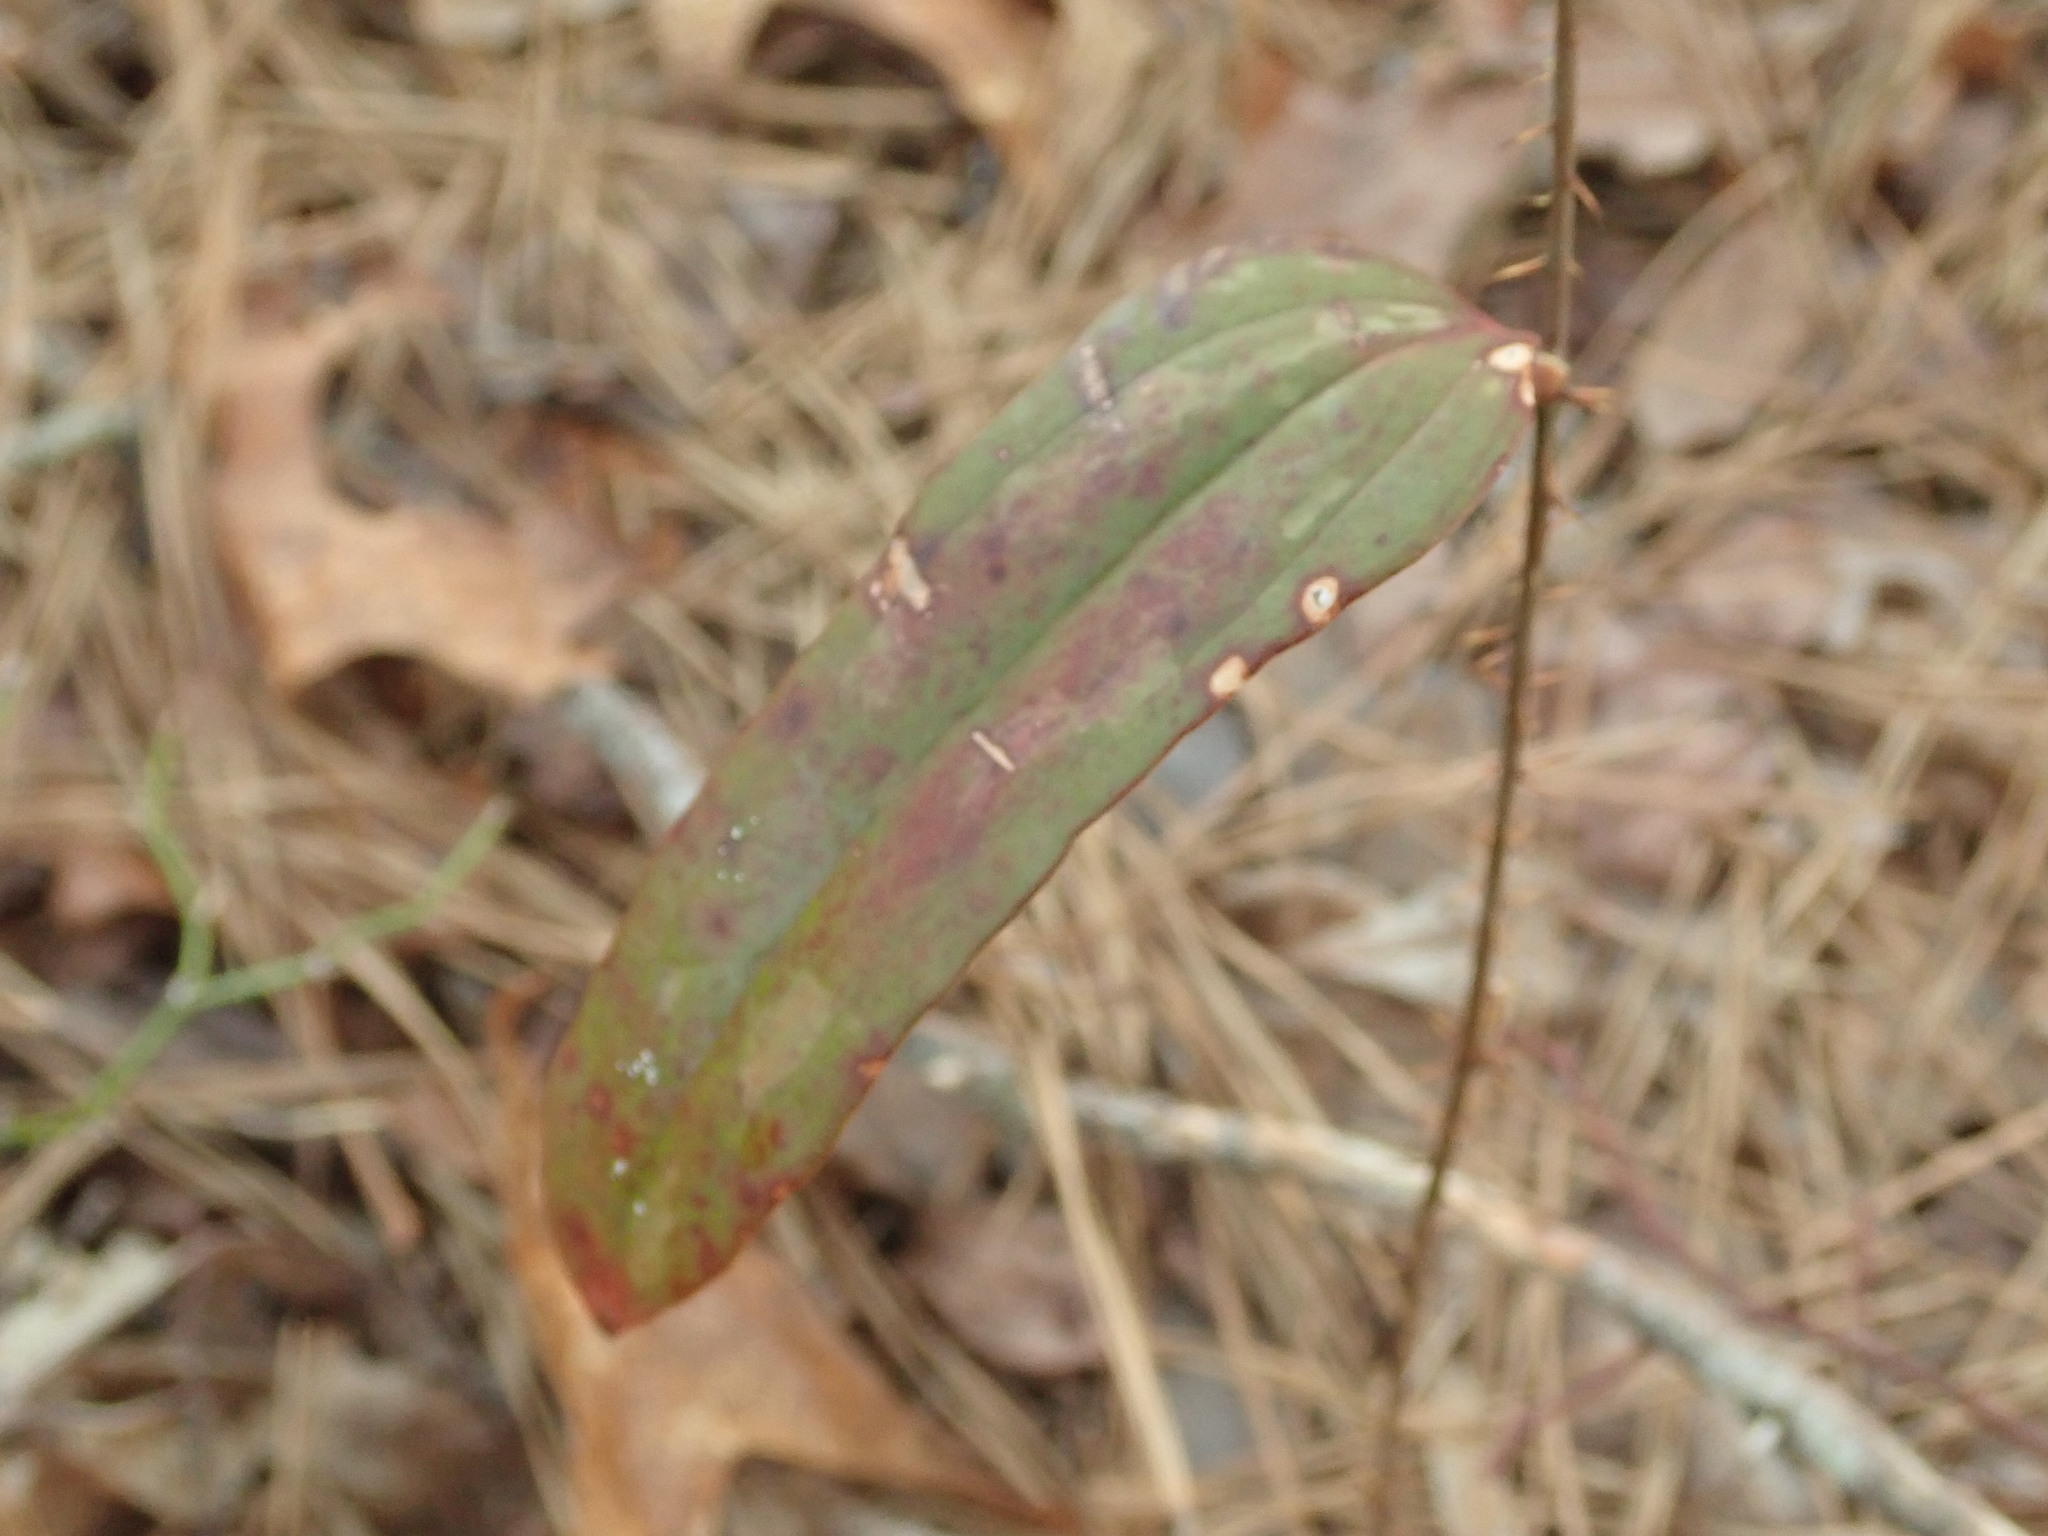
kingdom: Plantae
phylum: Tracheophyta
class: Liliopsida
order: Liliales
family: Smilacaceae
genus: Smilax
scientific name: Smilax glauca
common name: Cat greenbrier
